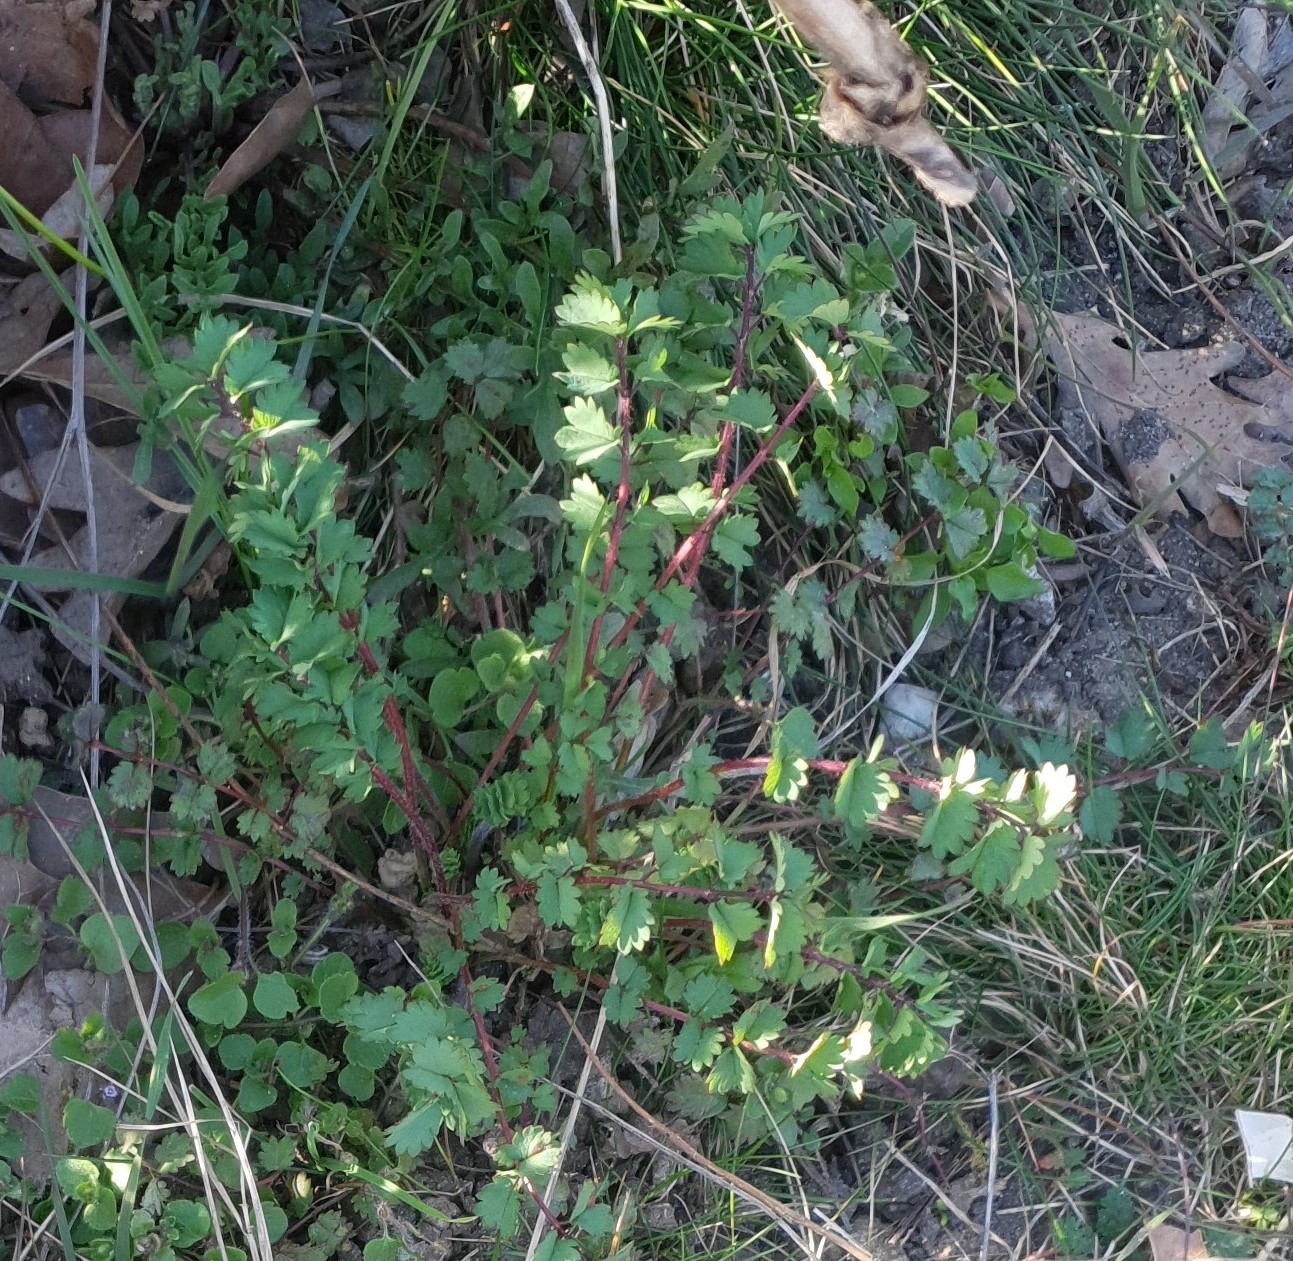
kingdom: Plantae
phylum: Tracheophyta
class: Magnoliopsida
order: Rosales
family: Rosaceae
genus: Poterium
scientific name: Poterium sanguisorba
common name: Salad burnet
